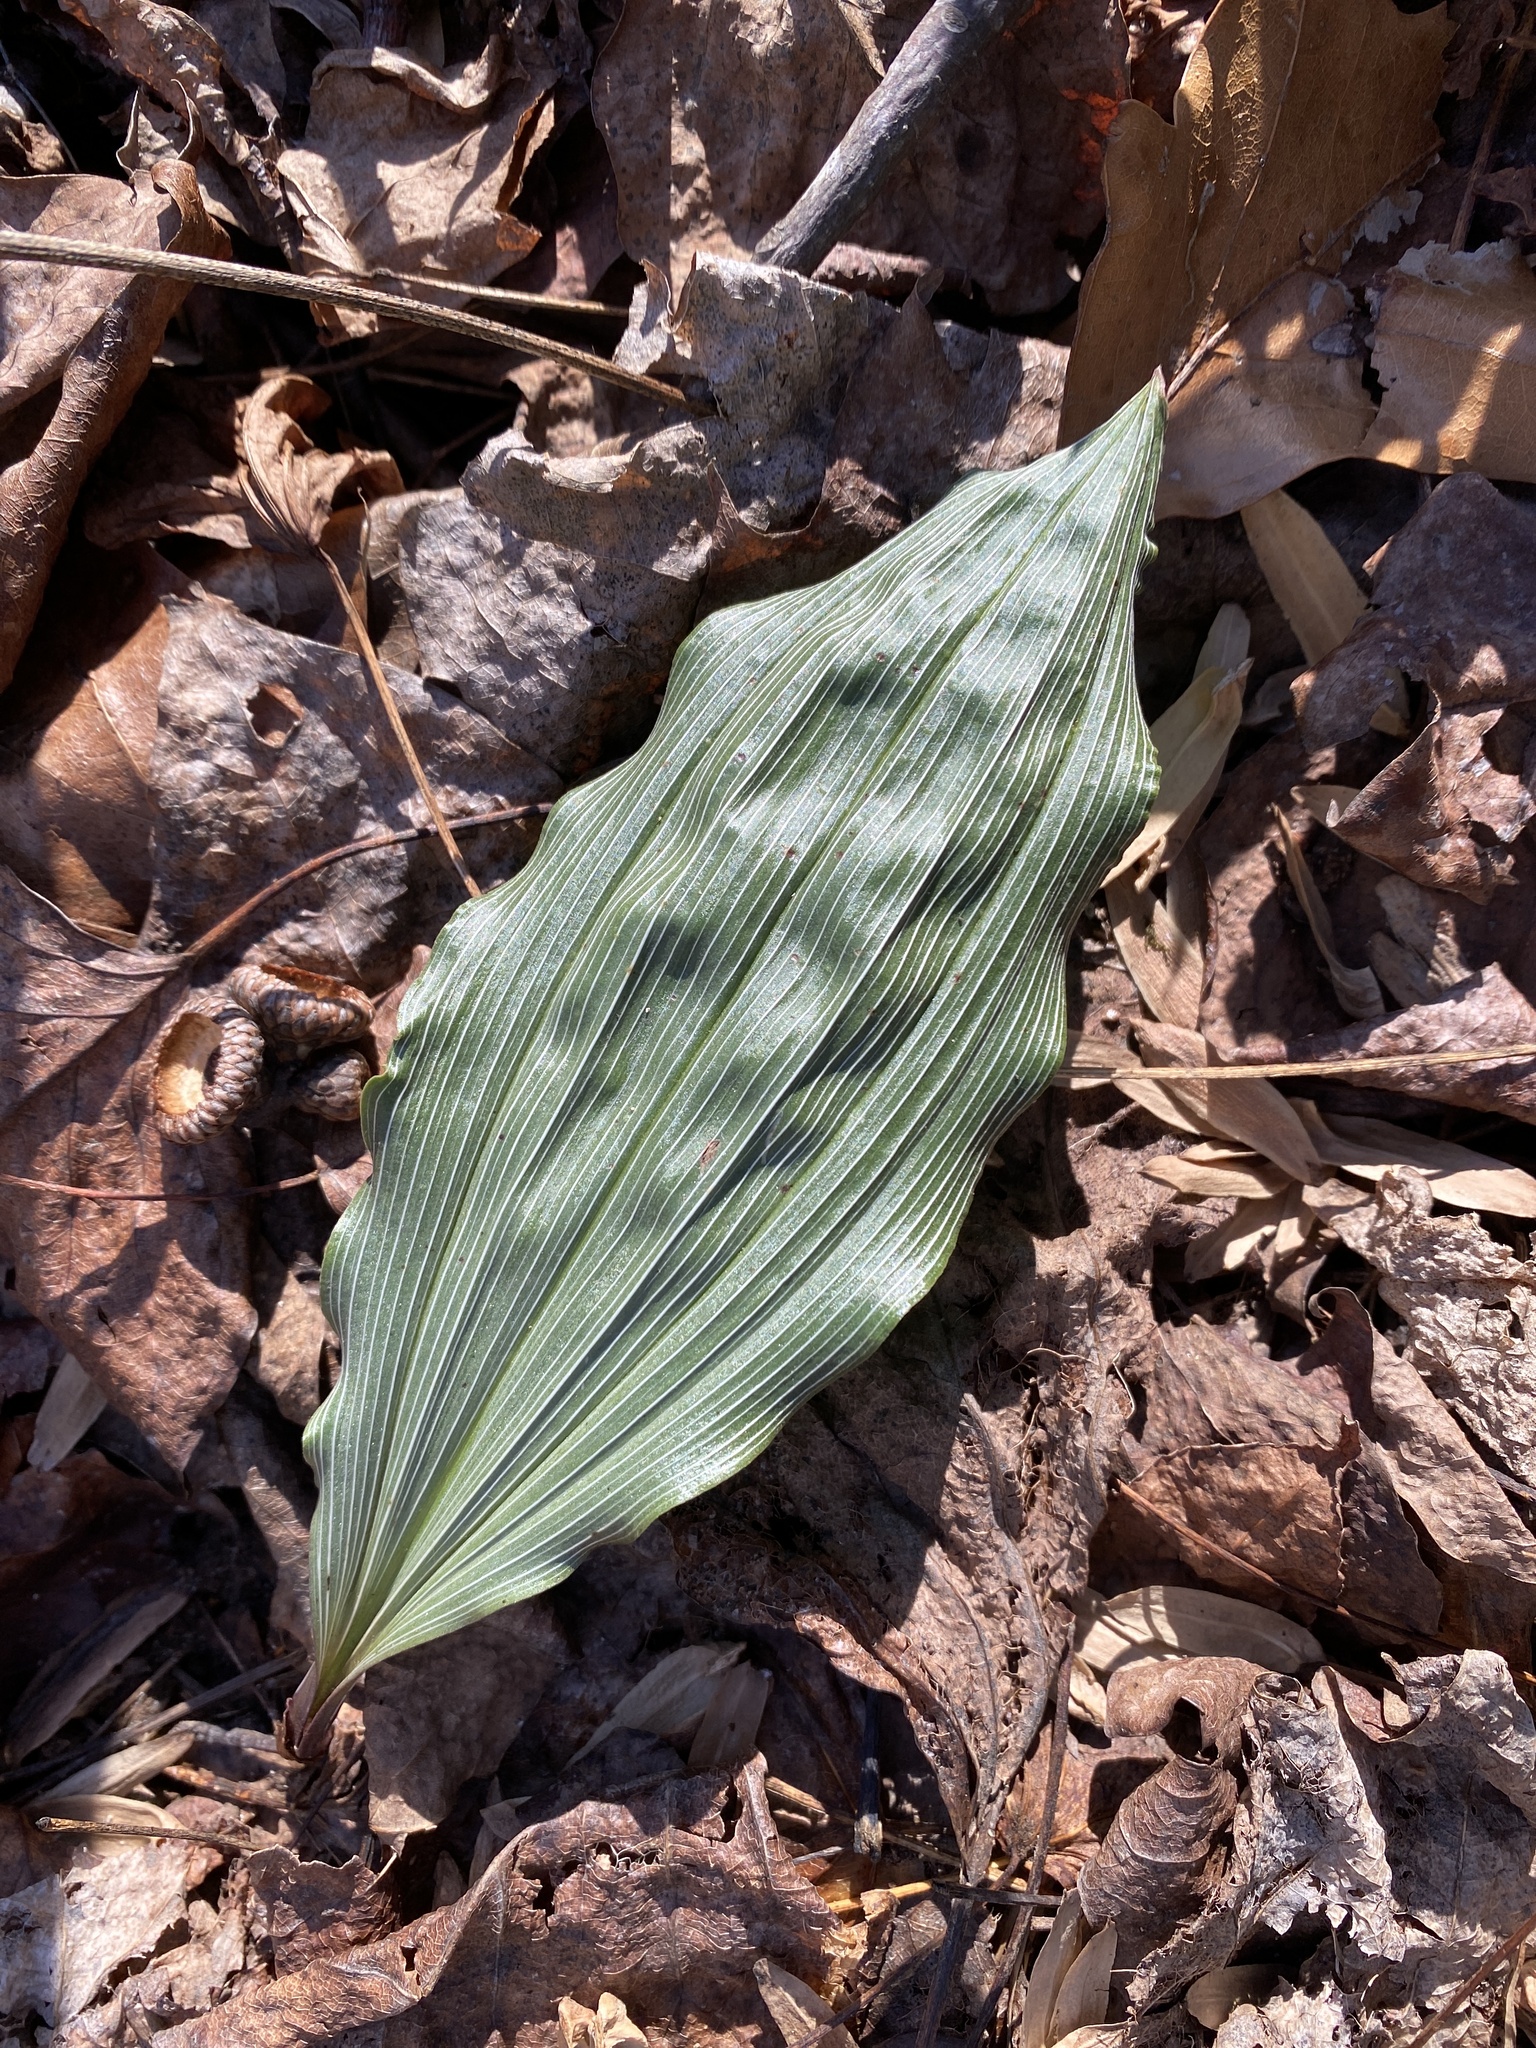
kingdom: Plantae
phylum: Tracheophyta
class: Liliopsida
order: Asparagales
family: Orchidaceae
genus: Aplectrum
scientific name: Aplectrum hyemale
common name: Adam-and-eve
